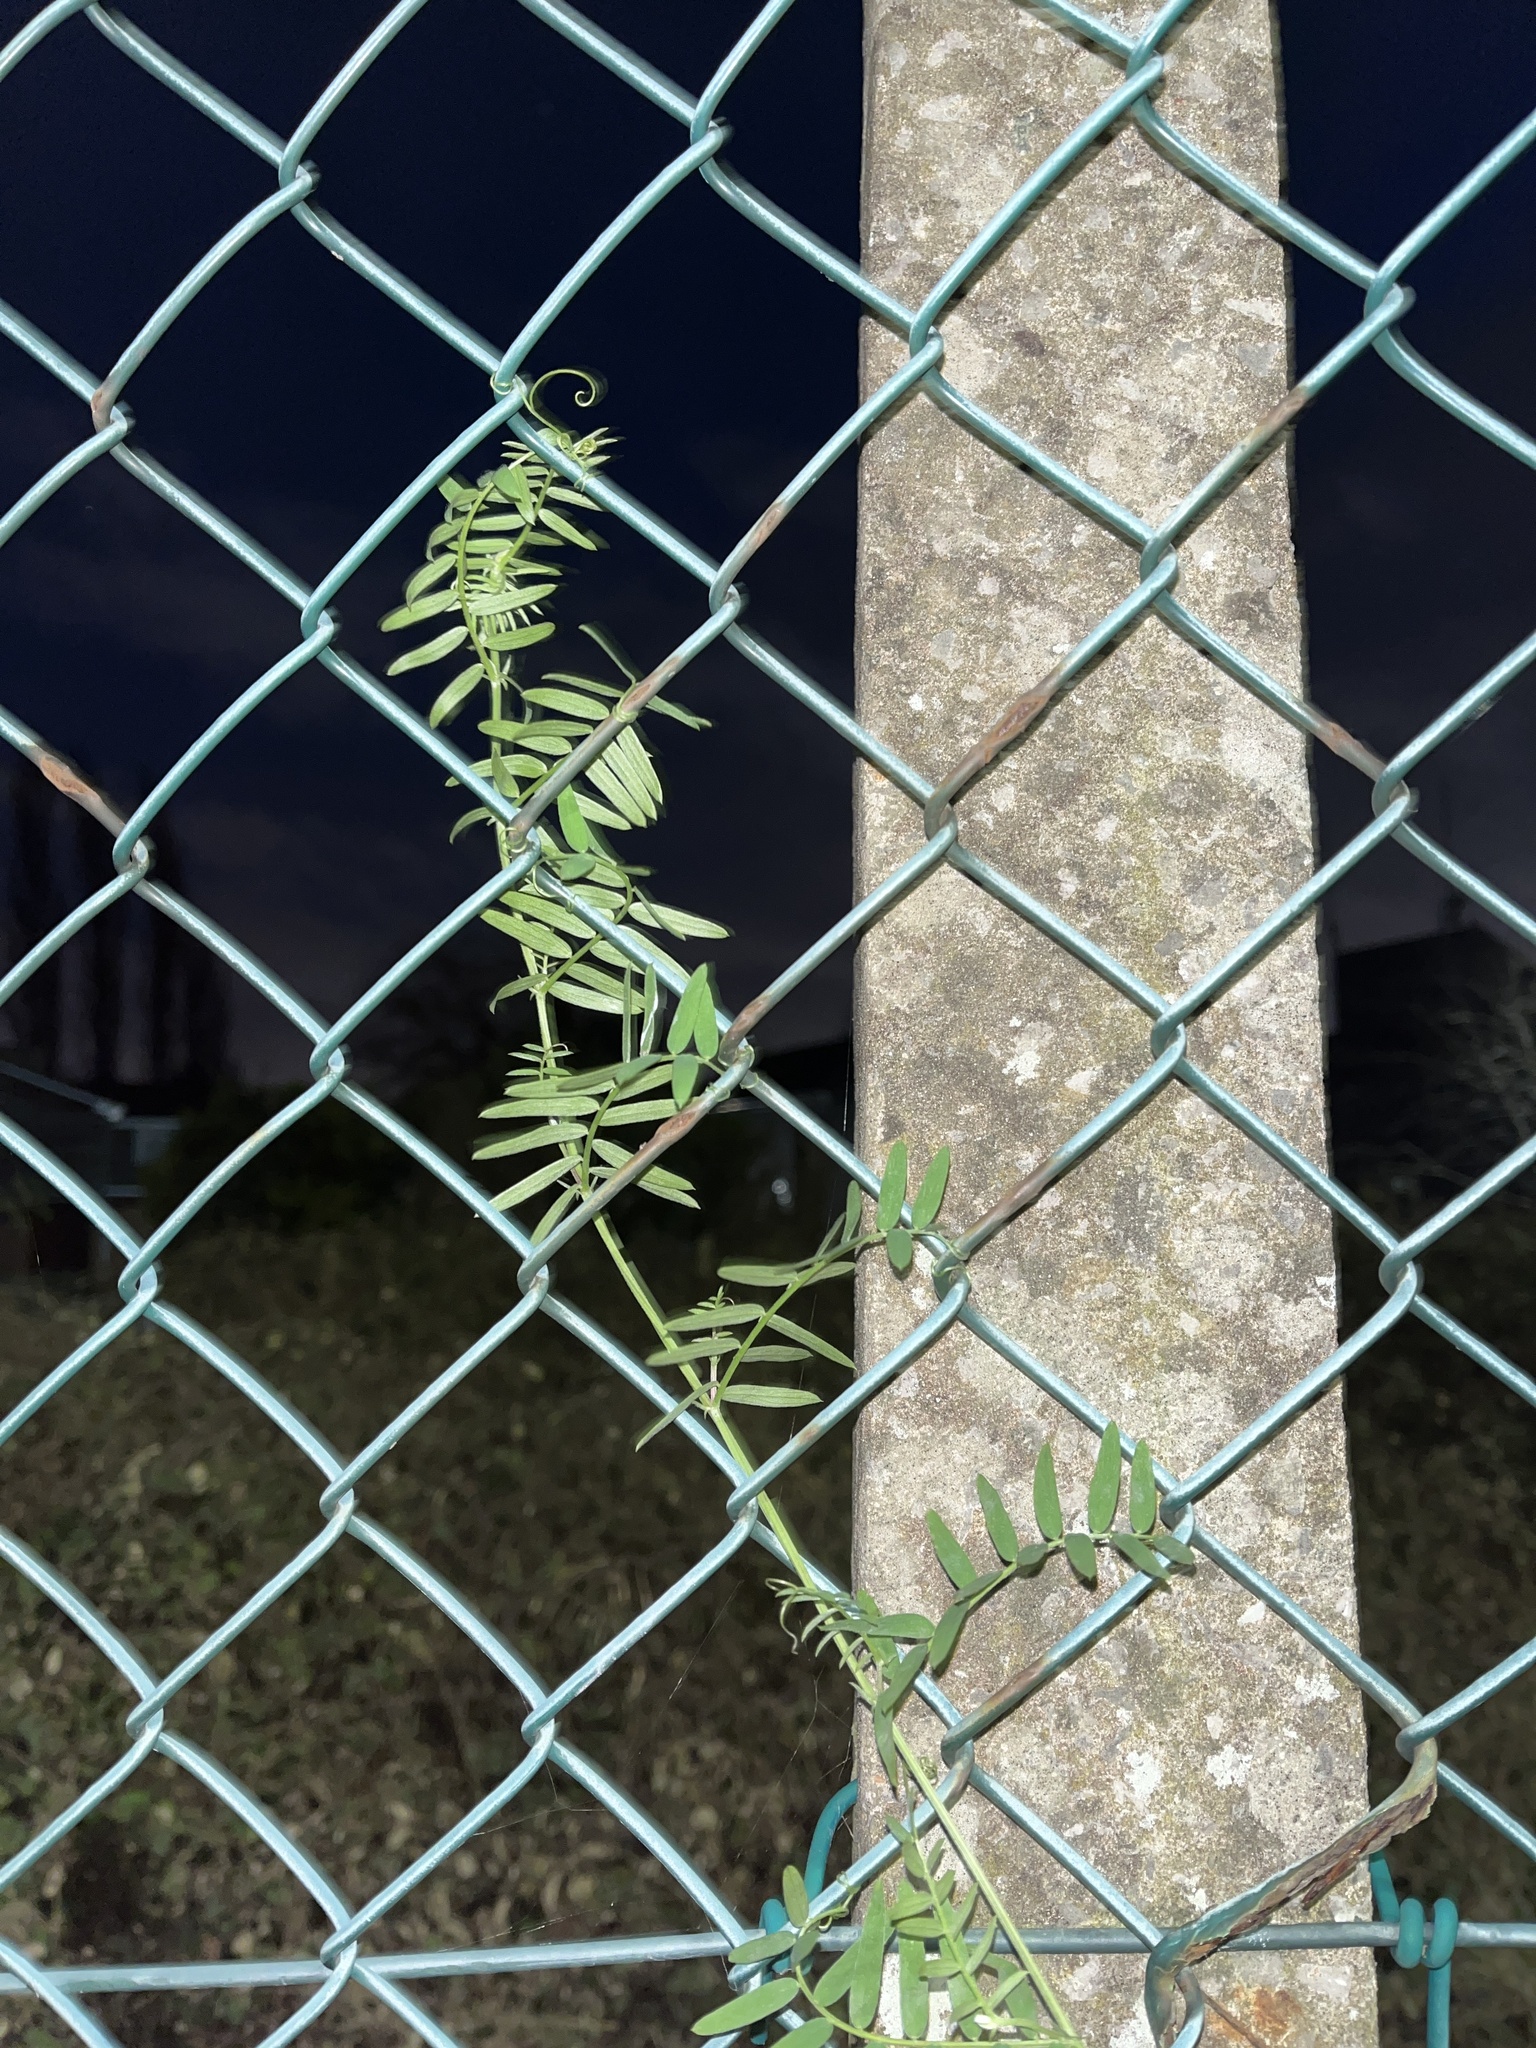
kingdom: Plantae
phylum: Tracheophyta
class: Magnoliopsida
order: Fabales
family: Fabaceae
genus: Vicia
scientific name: Vicia cracca
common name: Bird vetch
